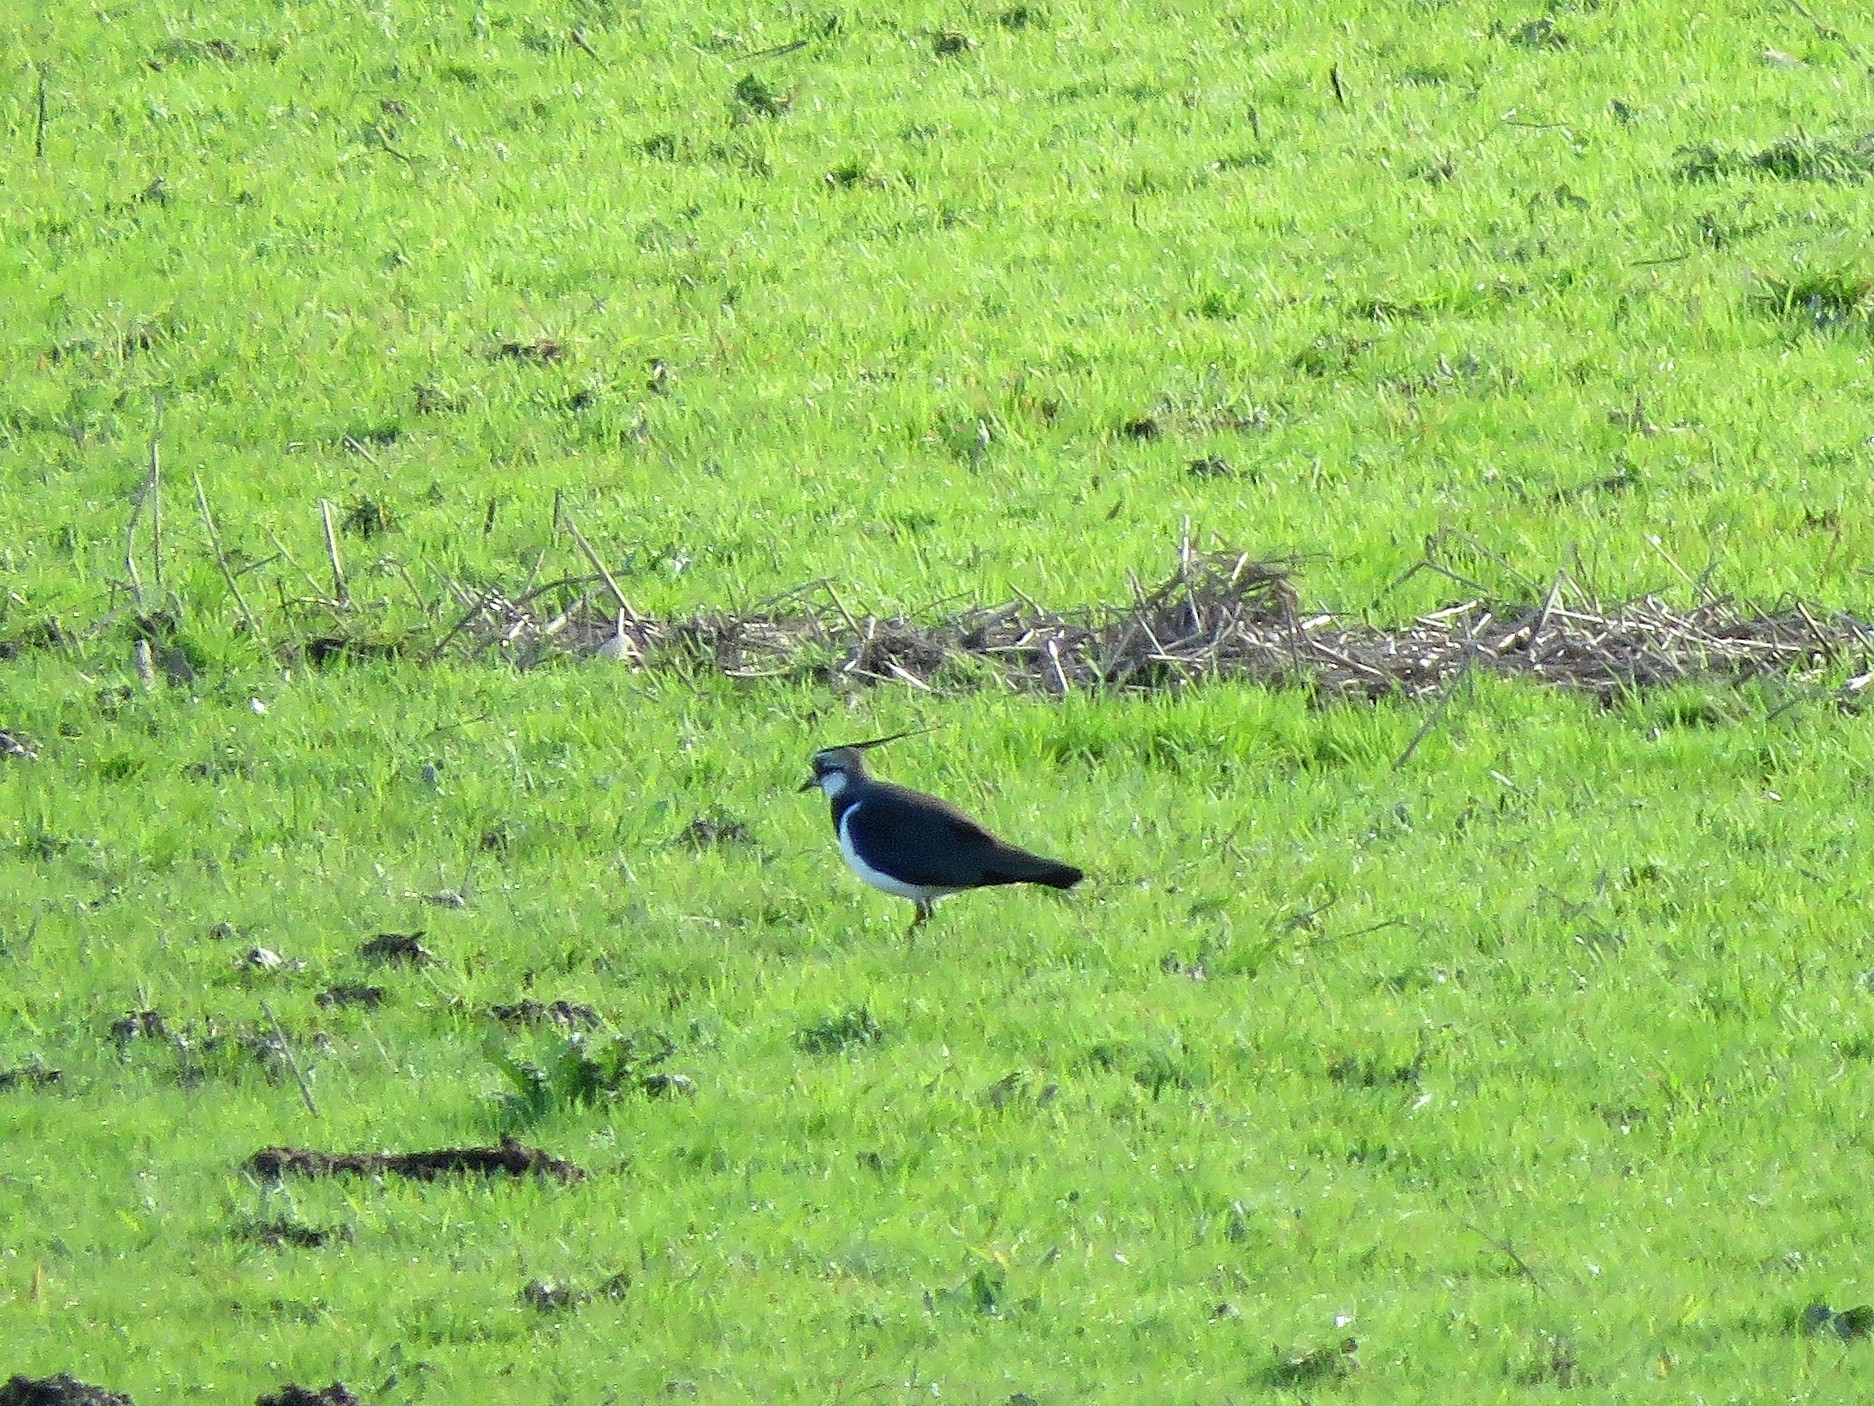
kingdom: Animalia
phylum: Chordata
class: Aves
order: Charadriiformes
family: Charadriidae
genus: Vanellus
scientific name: Vanellus vanellus
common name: Northern lapwing
